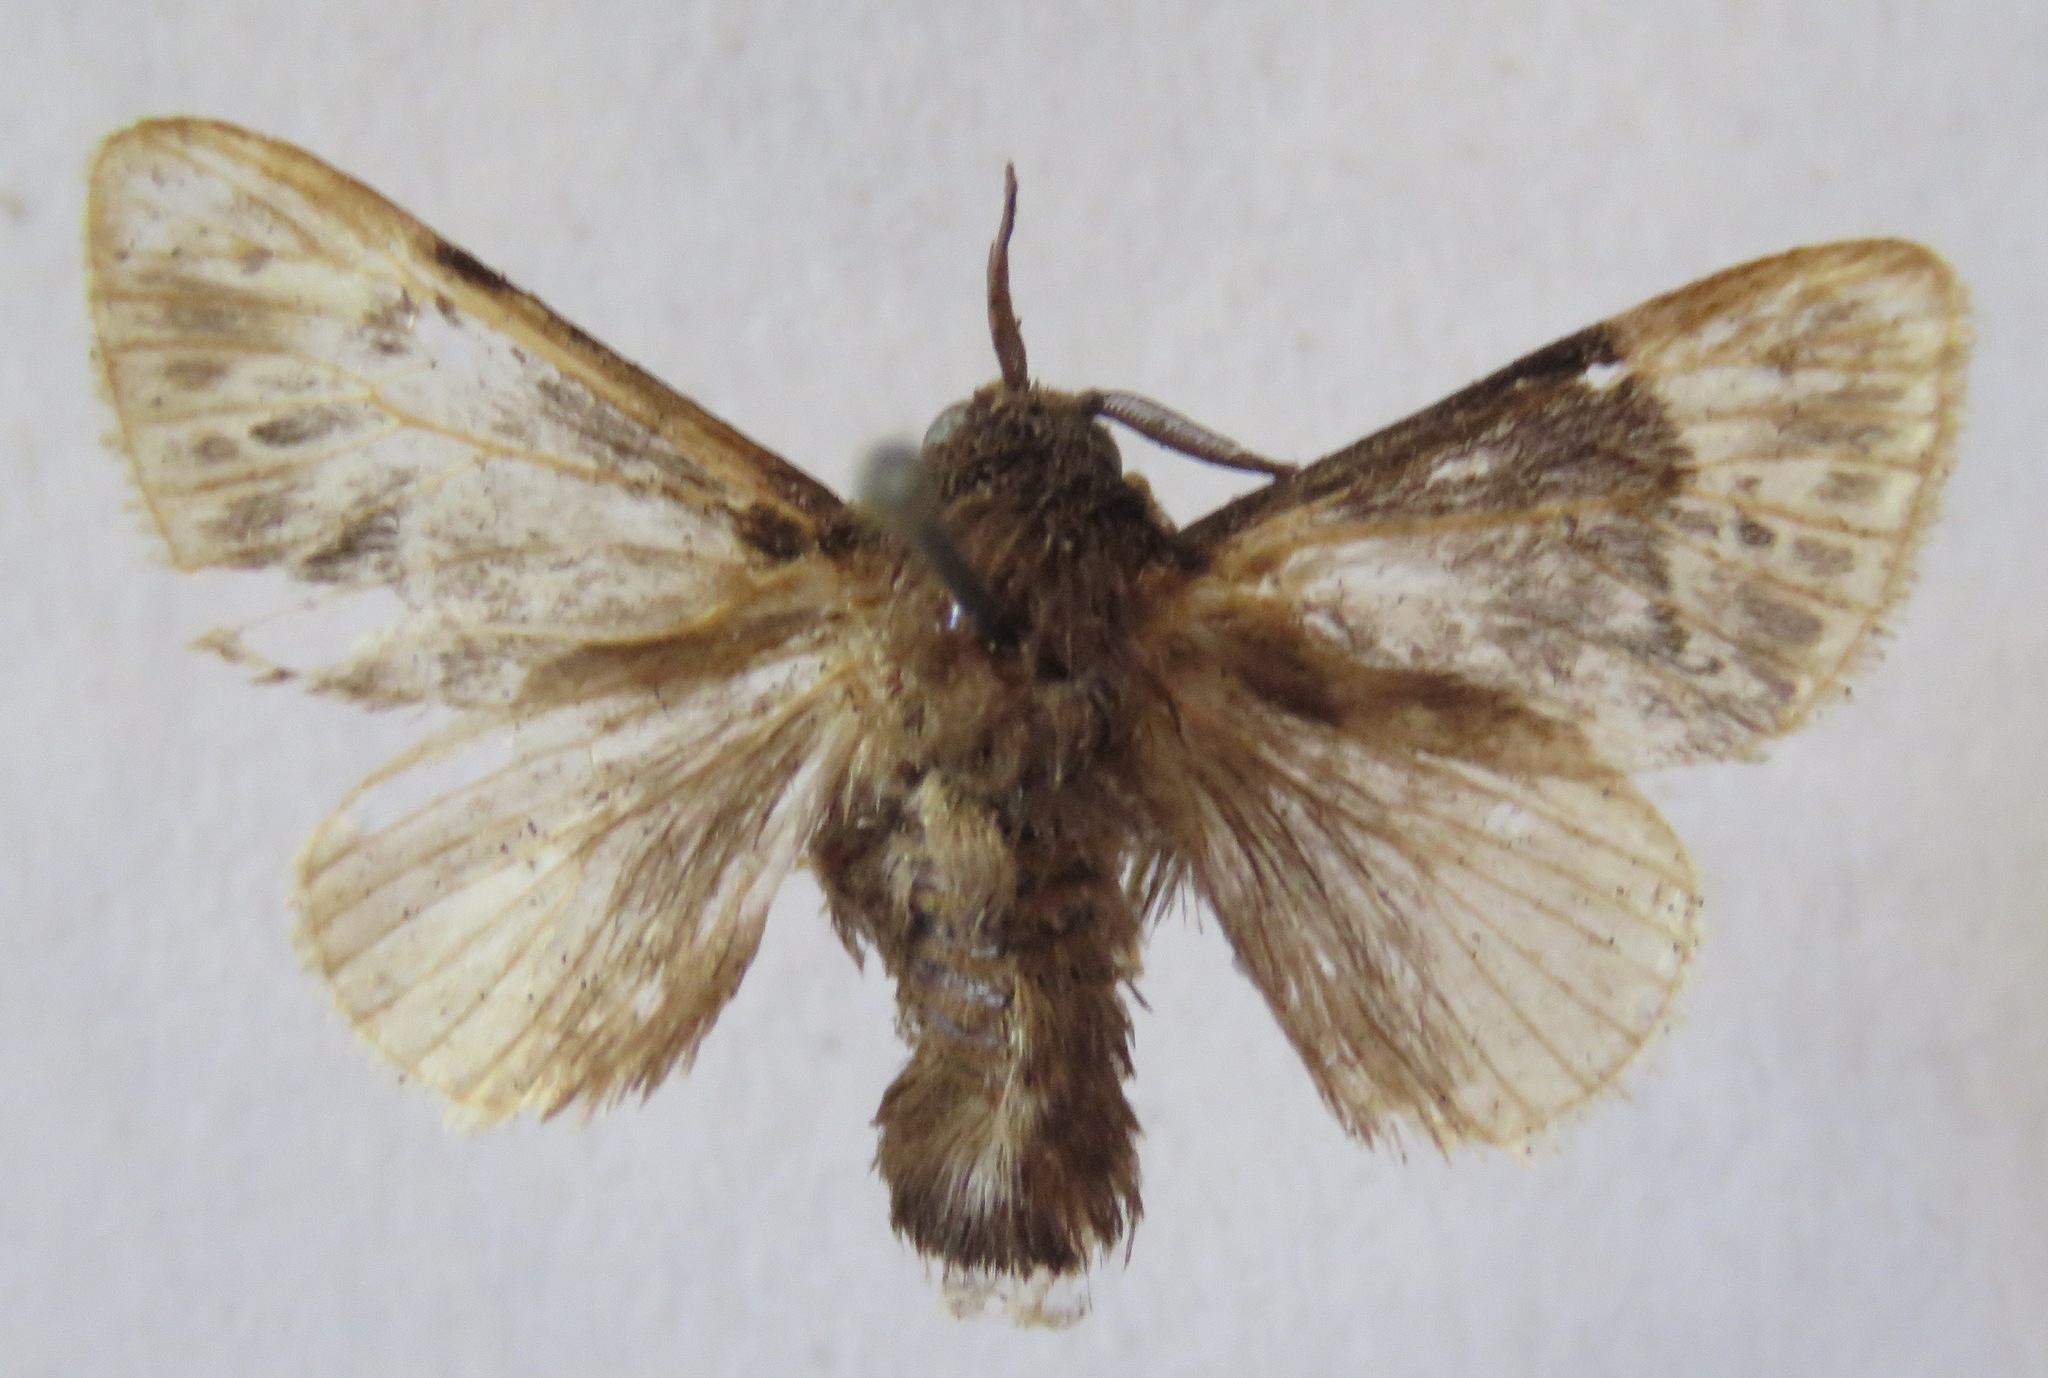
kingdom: Animalia
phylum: Arthropoda
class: Insecta
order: Lepidoptera
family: Megalopygidae
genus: Podalia
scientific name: Podalia thanatos
